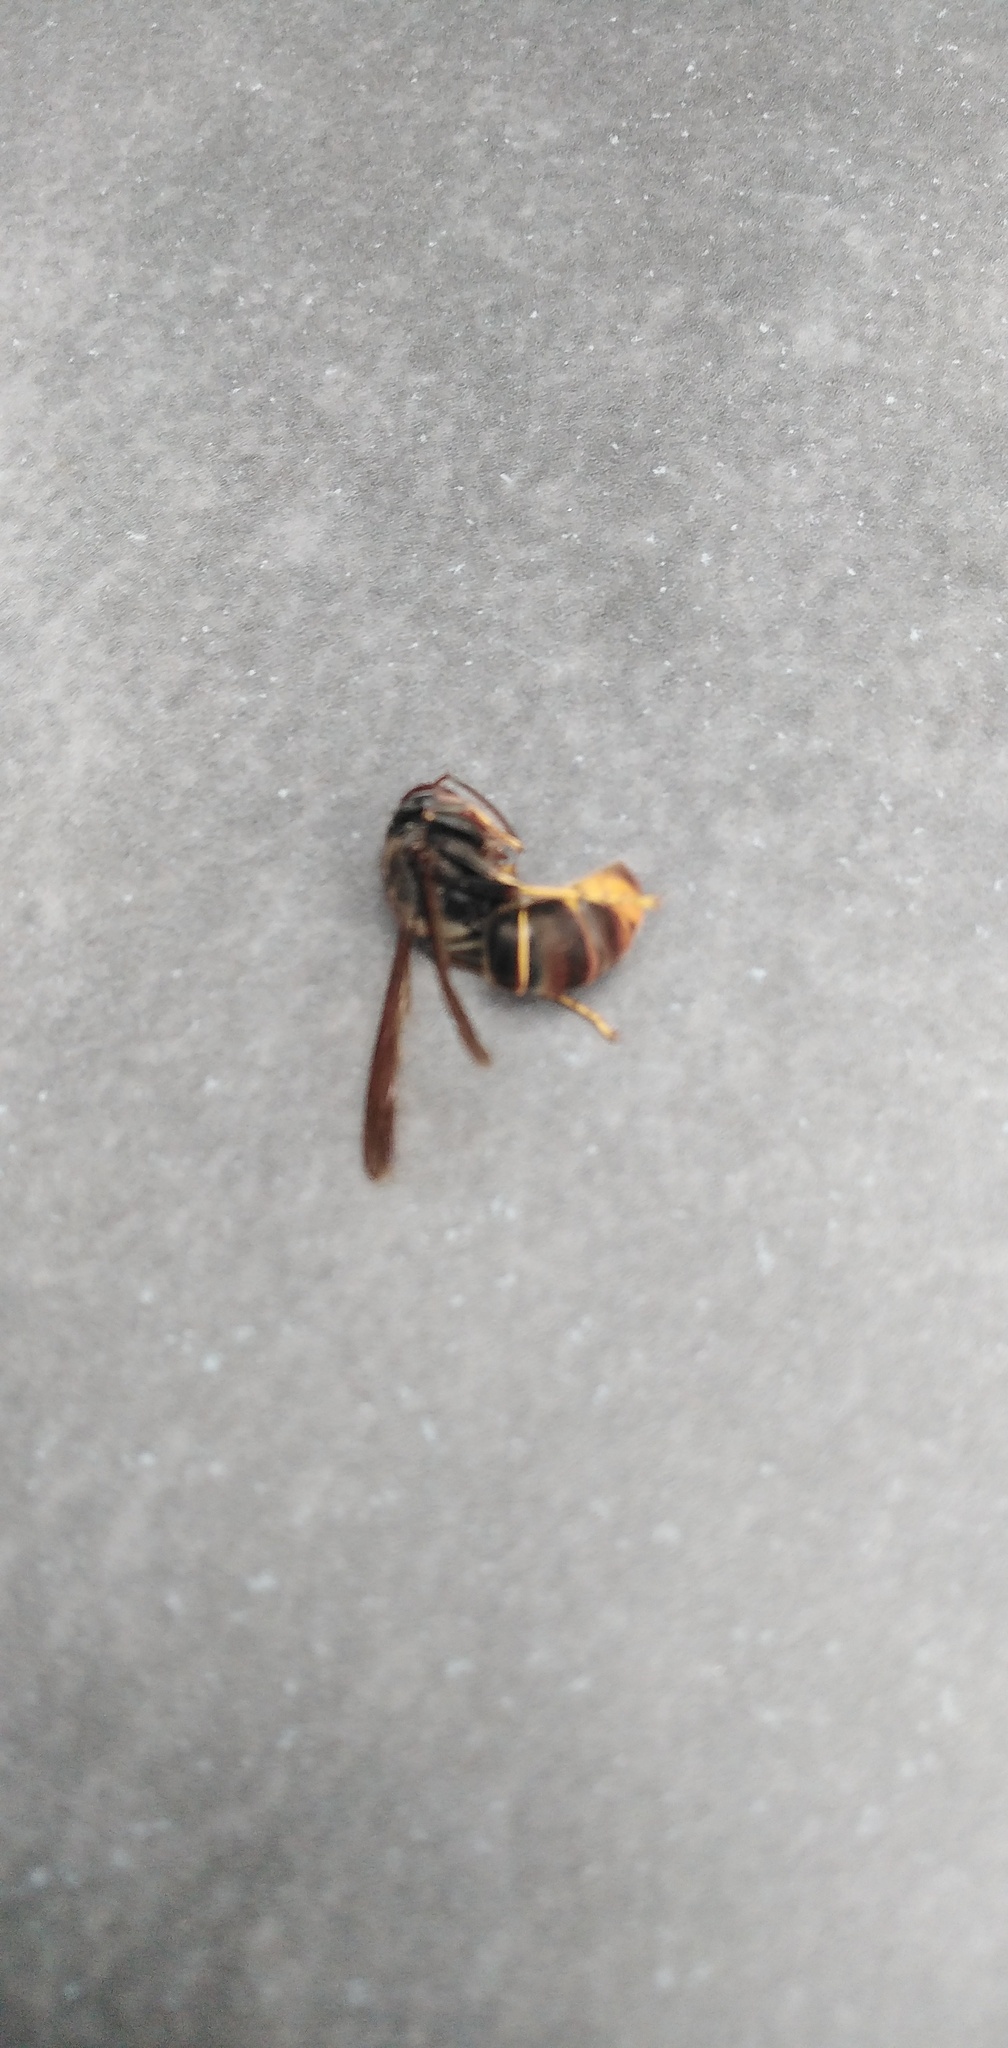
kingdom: Animalia
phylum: Arthropoda
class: Insecta
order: Hymenoptera
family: Vespidae
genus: Vespa
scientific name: Vespa velutina
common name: Asian hornet
